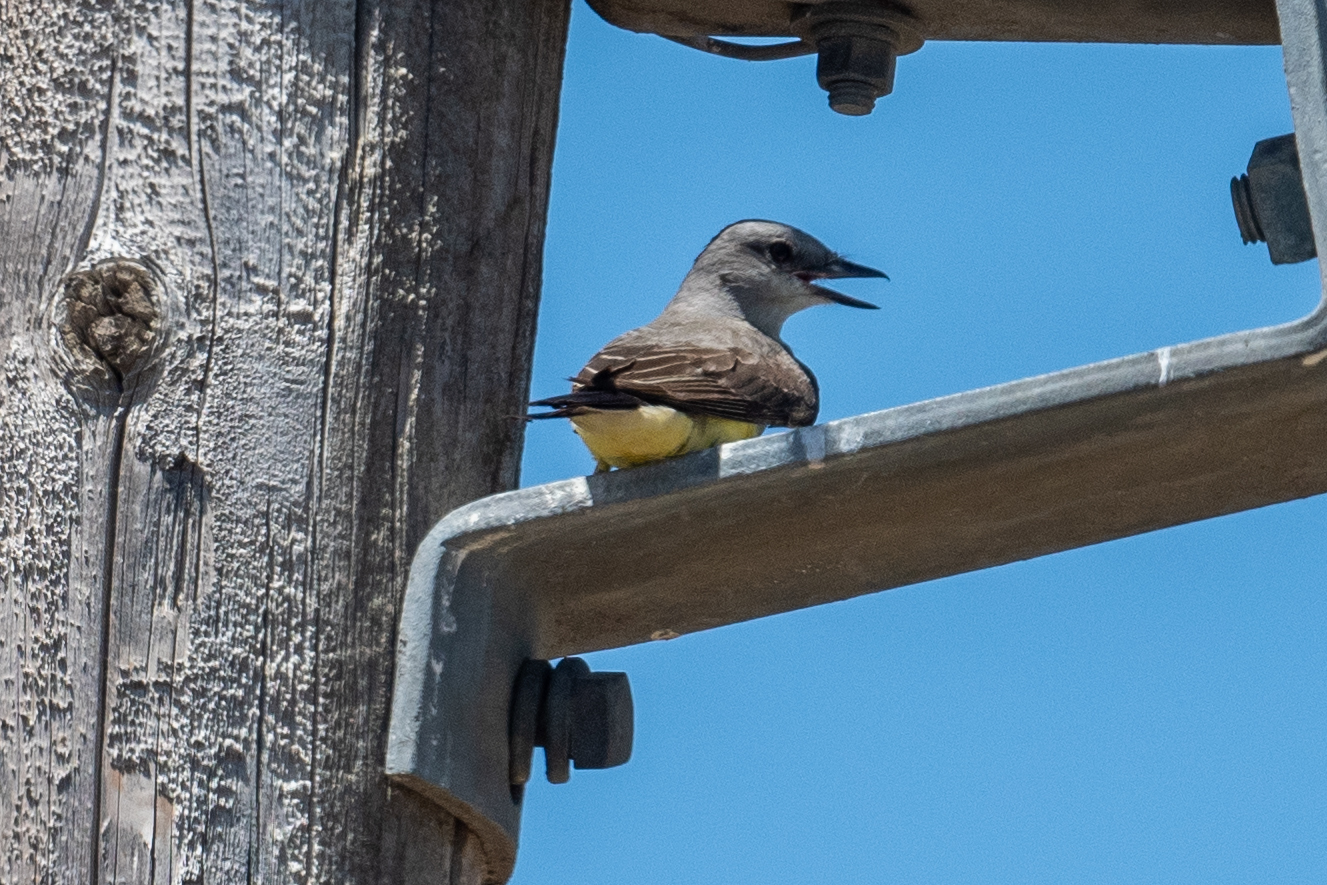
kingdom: Animalia
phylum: Chordata
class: Aves
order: Passeriformes
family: Tyrannidae
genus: Tyrannus
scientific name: Tyrannus verticalis
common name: Western kingbird
